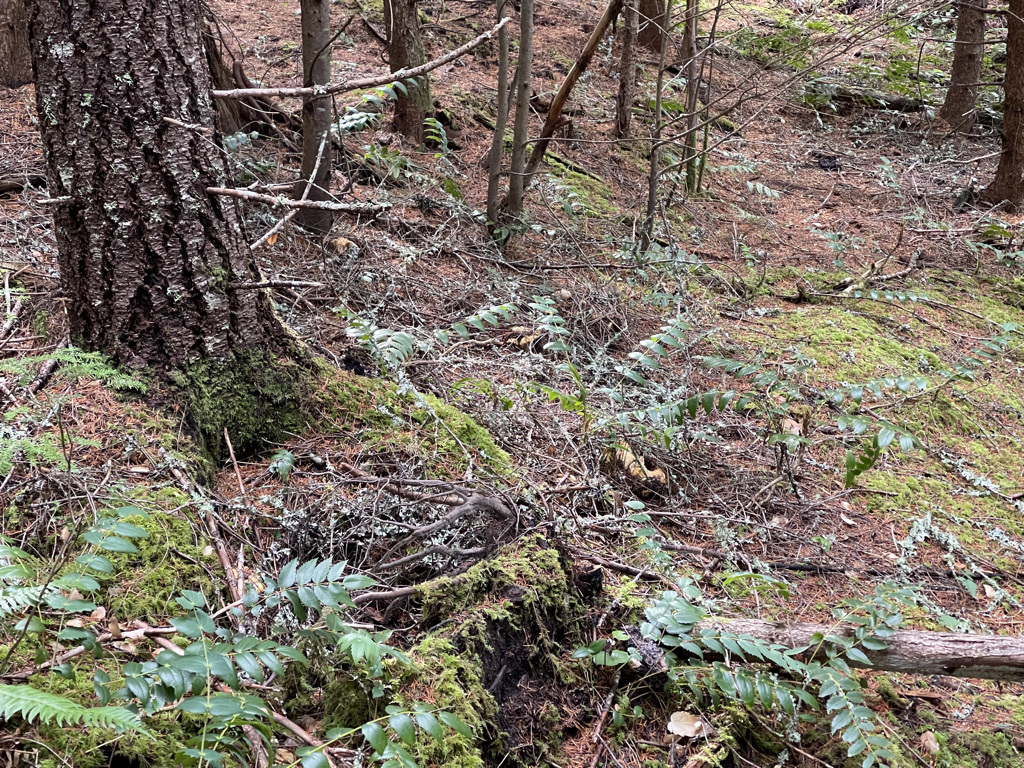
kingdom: Fungi
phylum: Basidiomycota
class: Agaricomycetes
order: Cantharellales
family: Hydnaceae
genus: Cantharellus
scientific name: Cantharellus subalbidus
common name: White chanterelle
